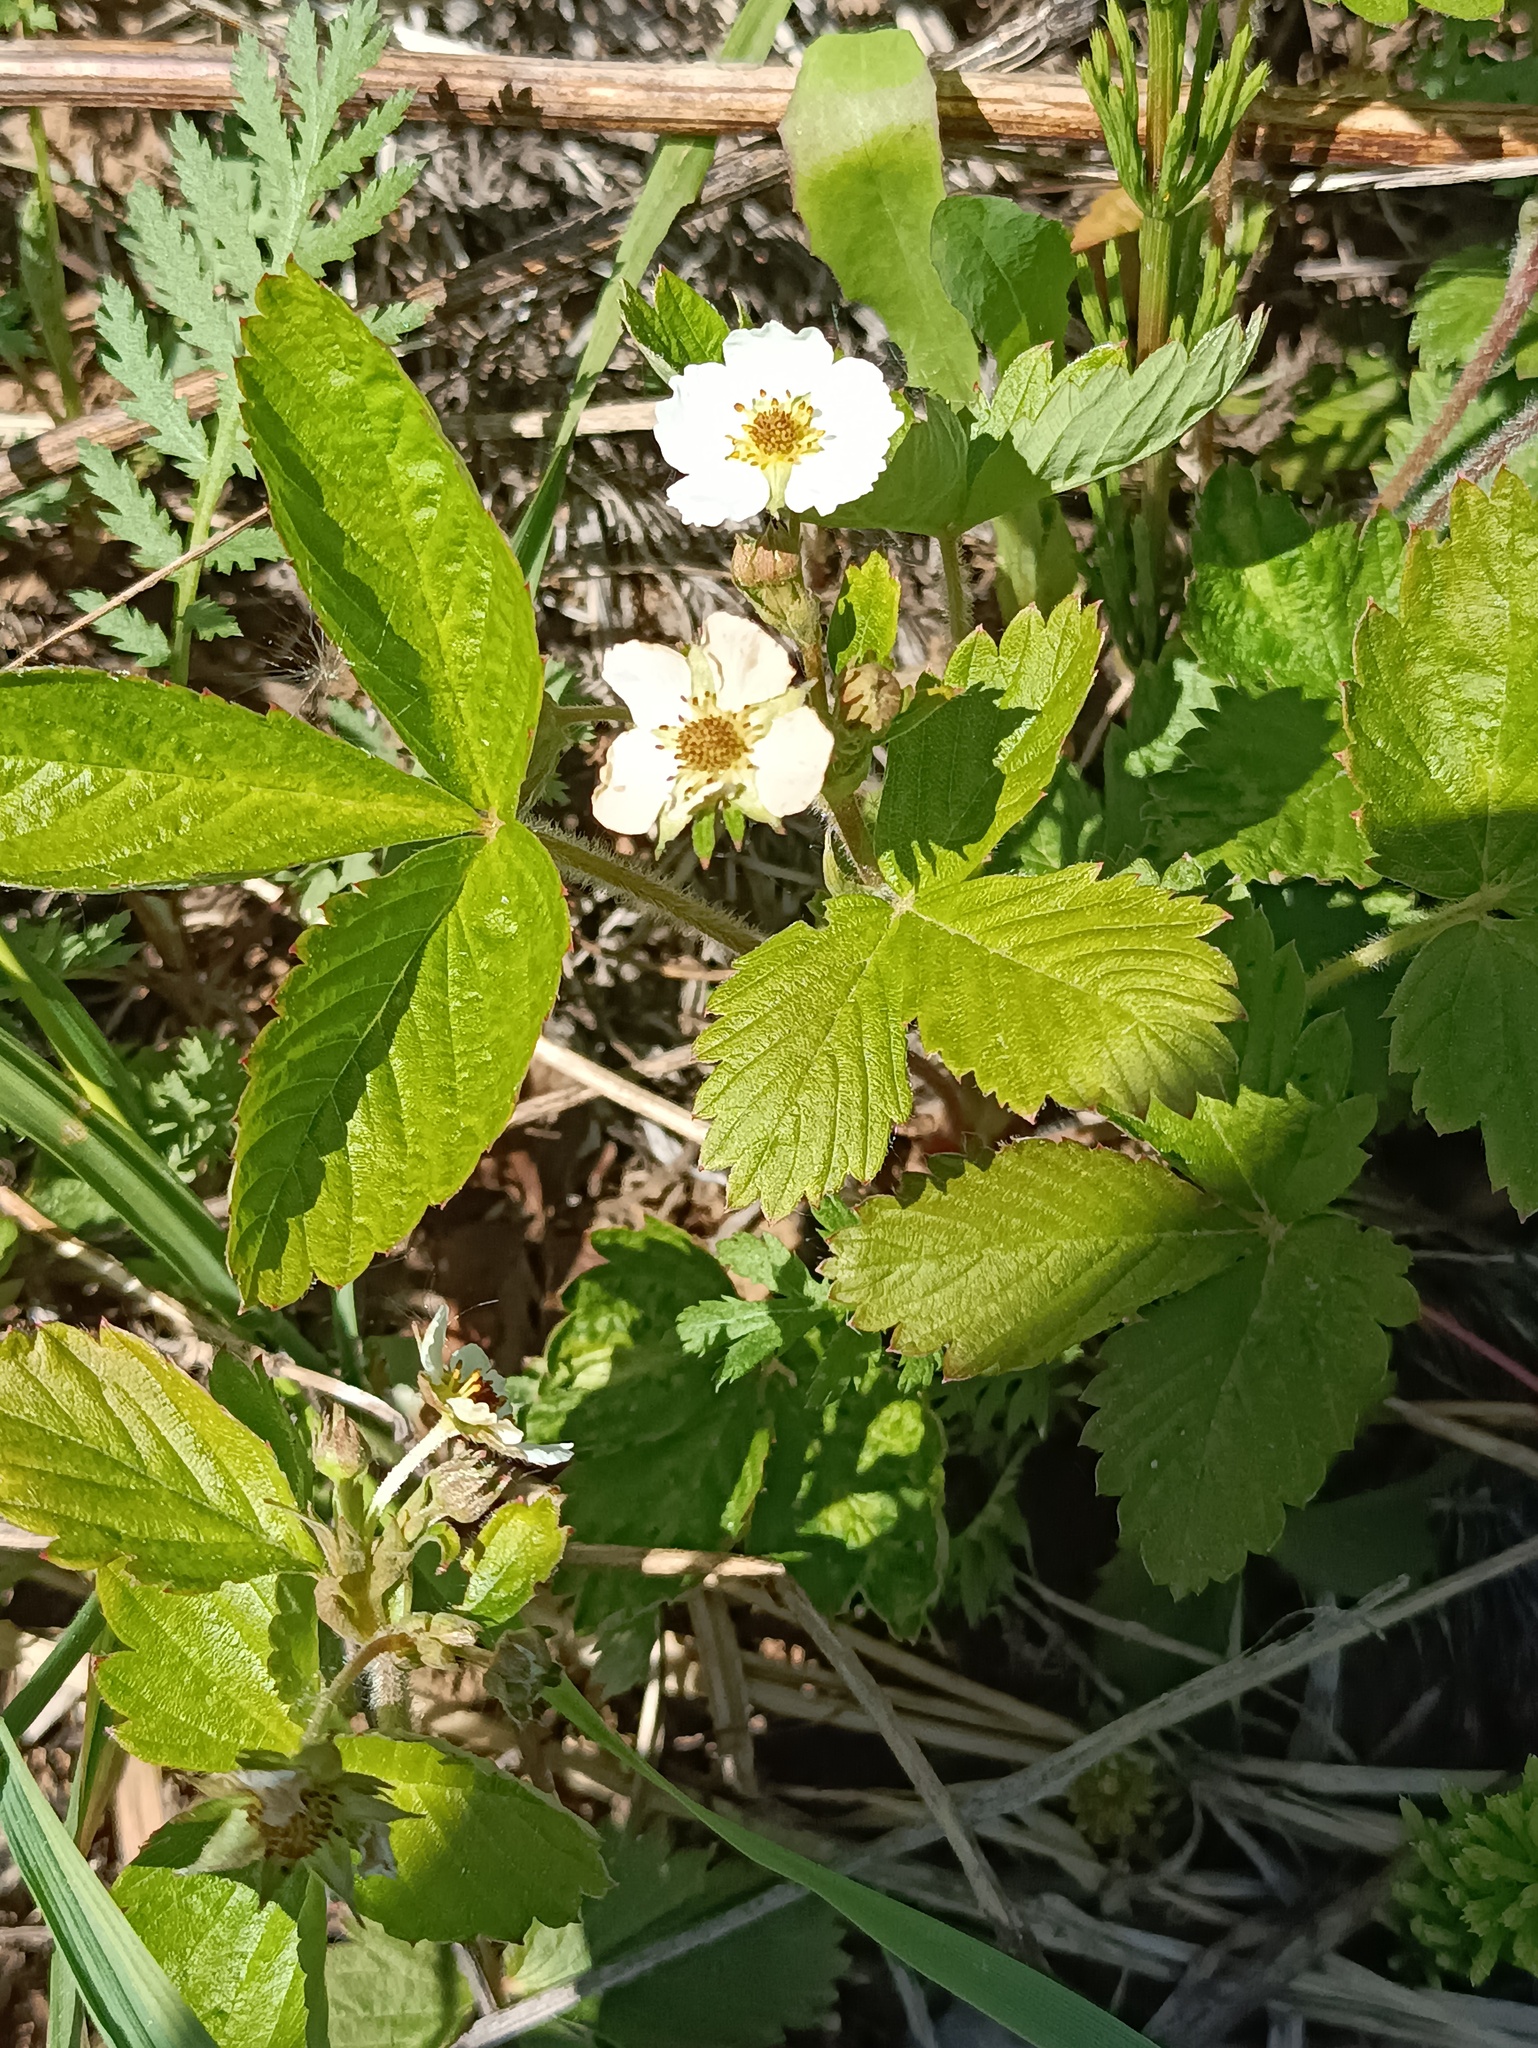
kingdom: Plantae
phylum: Tracheophyta
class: Magnoliopsida
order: Rosales
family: Rosaceae
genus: Fragaria
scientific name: Fragaria vesca
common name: Wild strawberry
